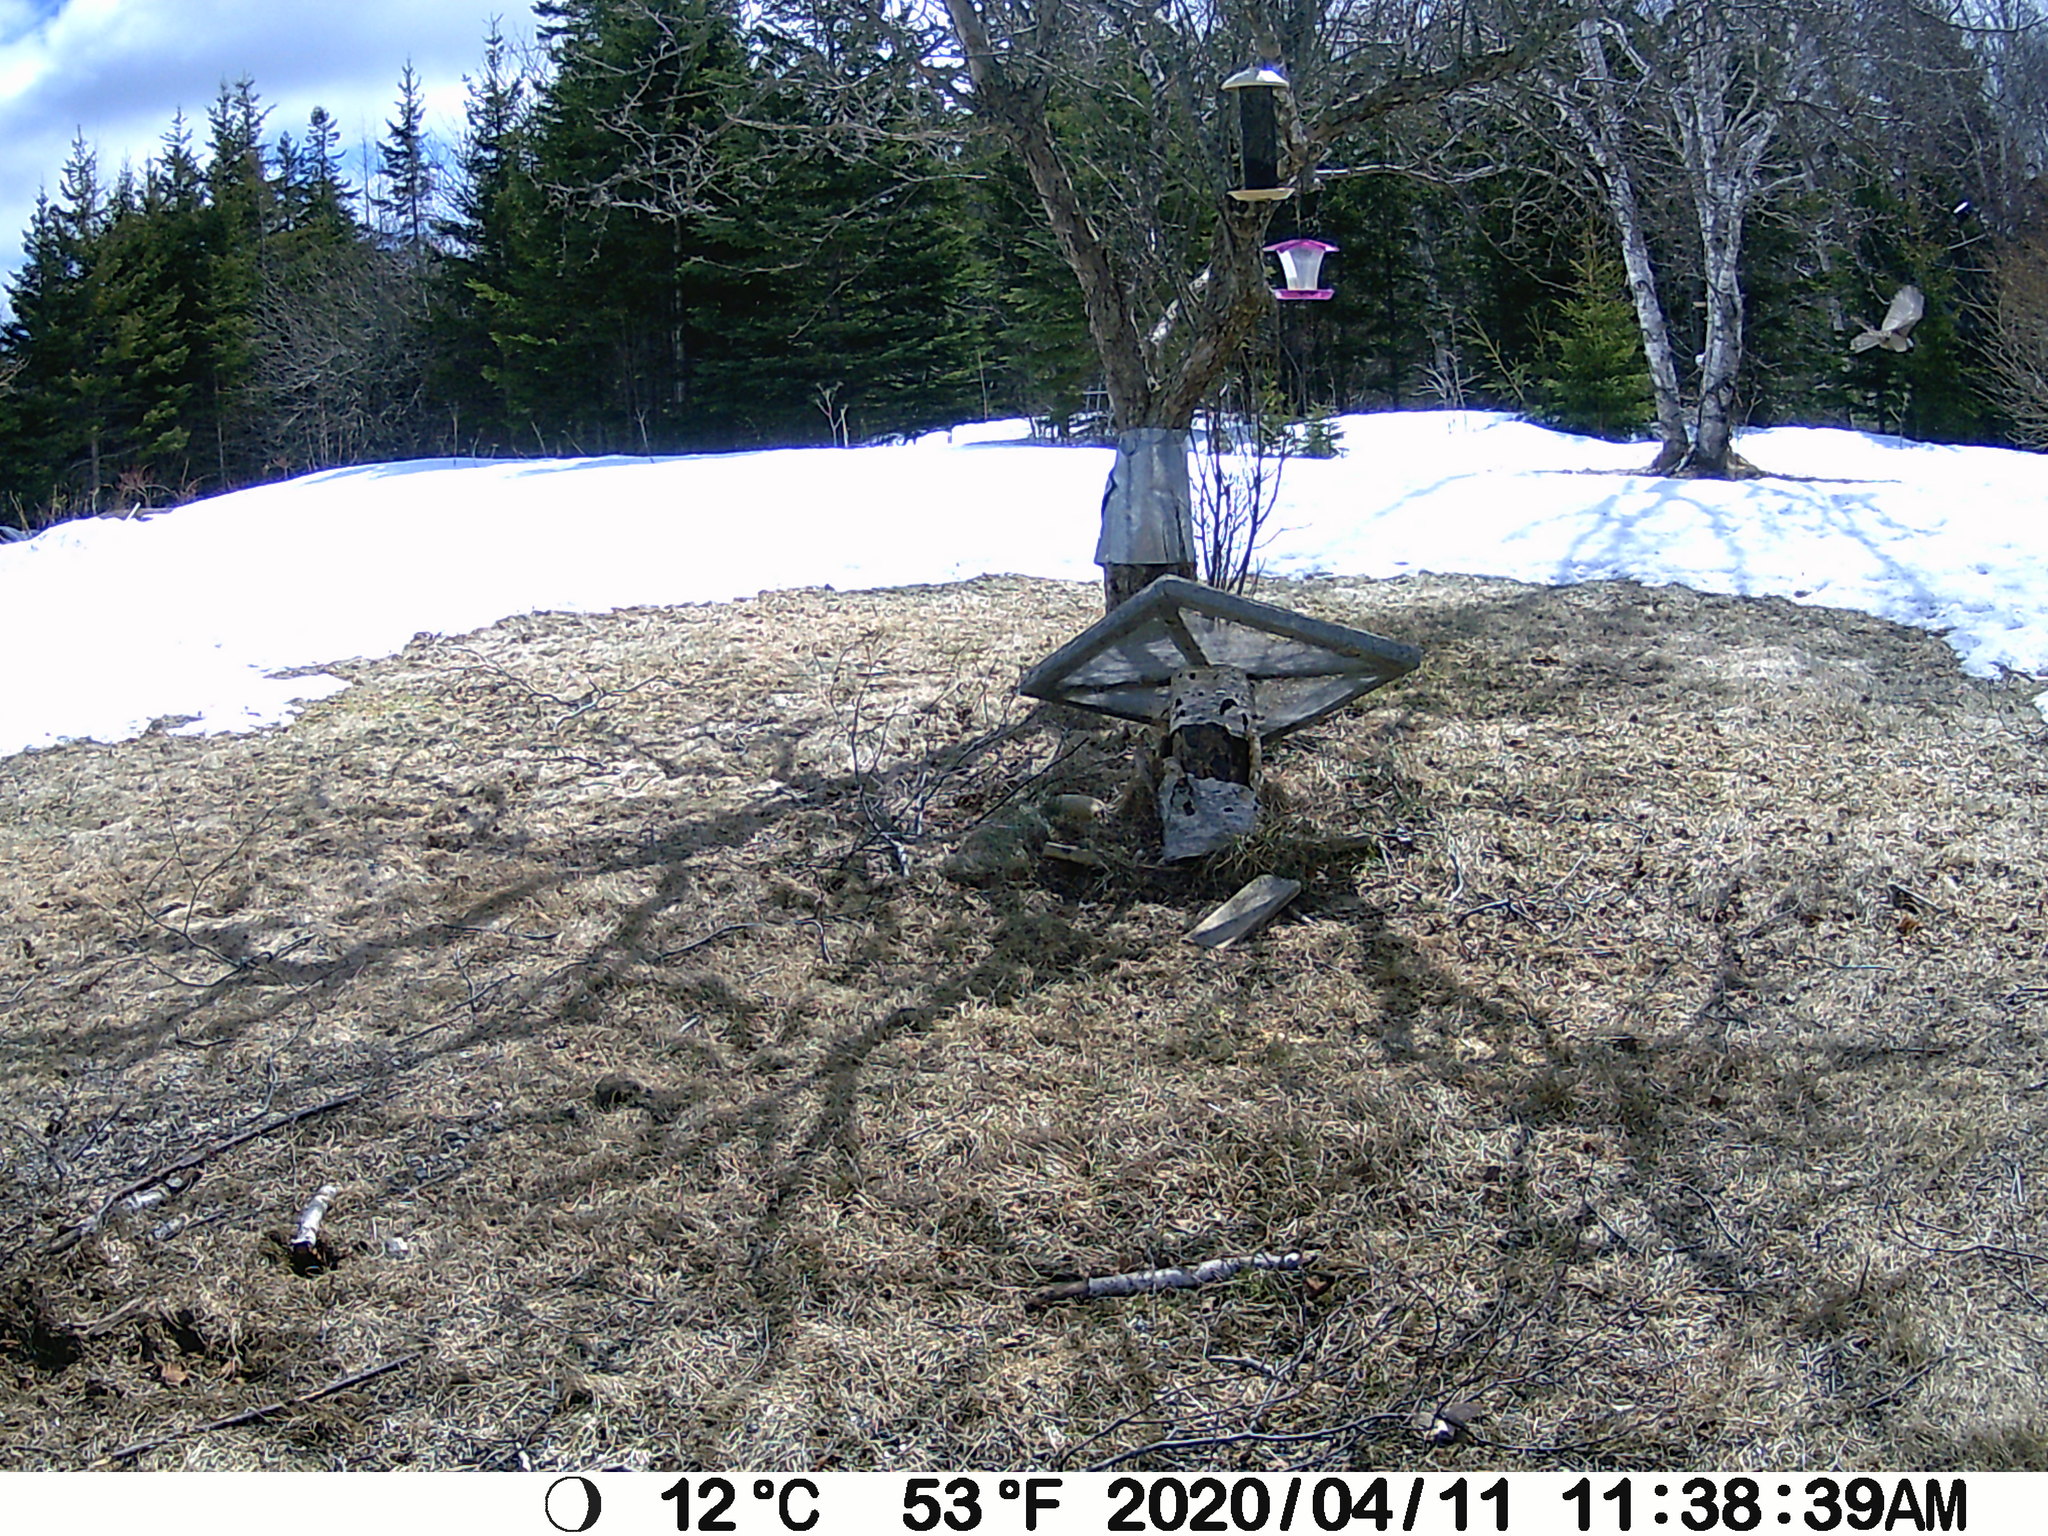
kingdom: Animalia
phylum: Chordata
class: Aves
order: Passeriformes
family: Paridae
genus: Poecile
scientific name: Poecile atricapillus
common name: Black-capped chickadee
